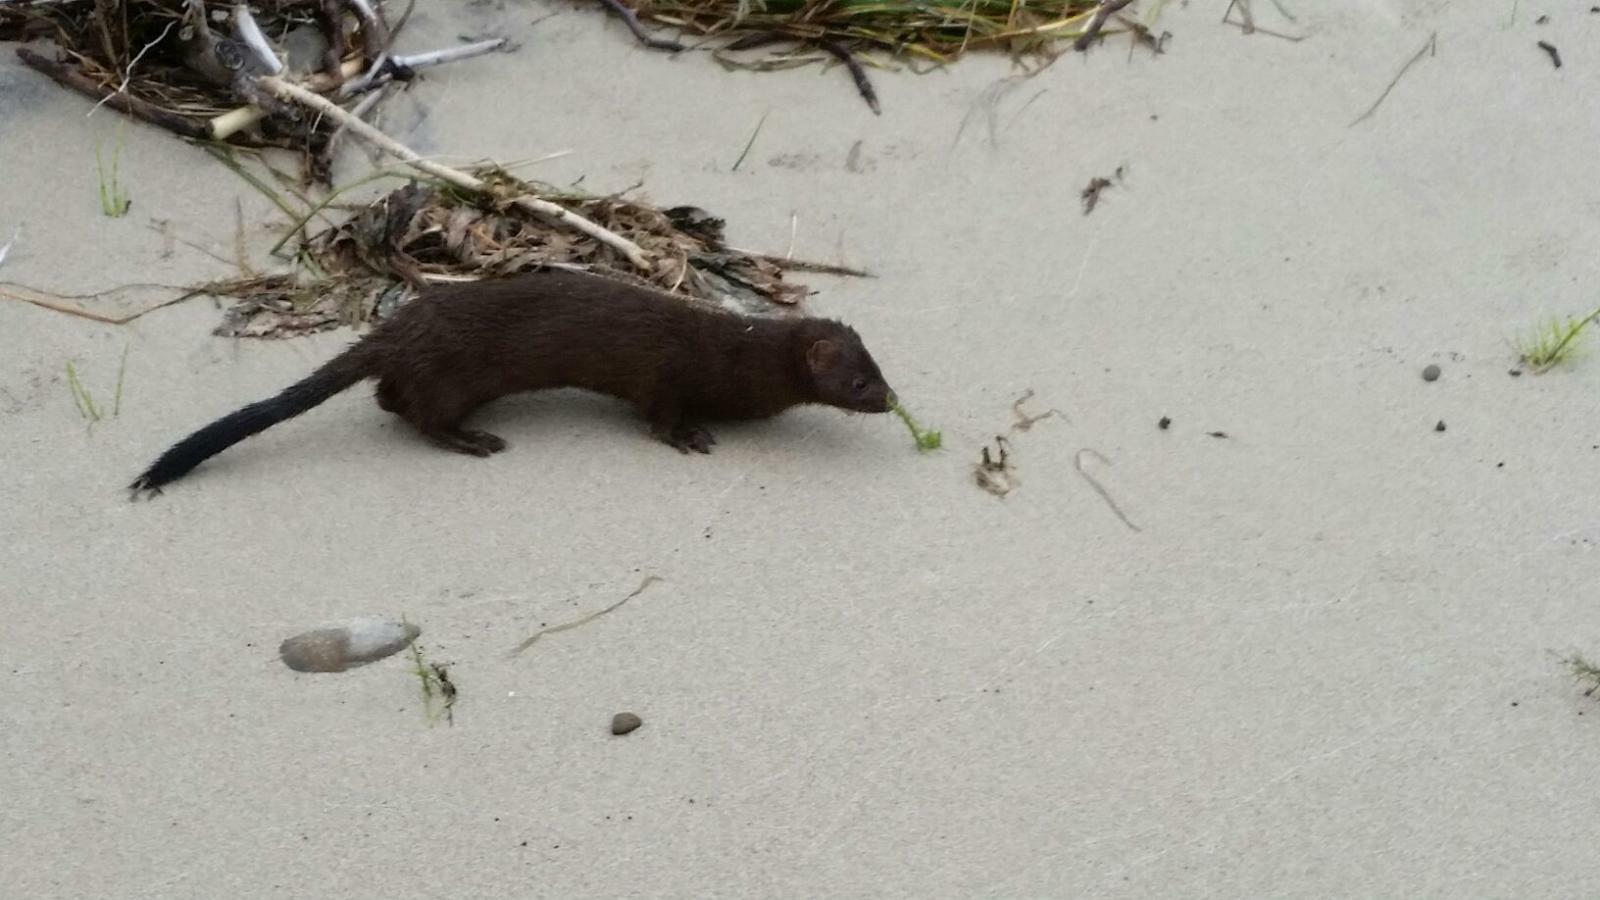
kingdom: Animalia
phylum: Chordata
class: Mammalia
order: Carnivora
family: Mustelidae
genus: Mustela
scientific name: Mustela
